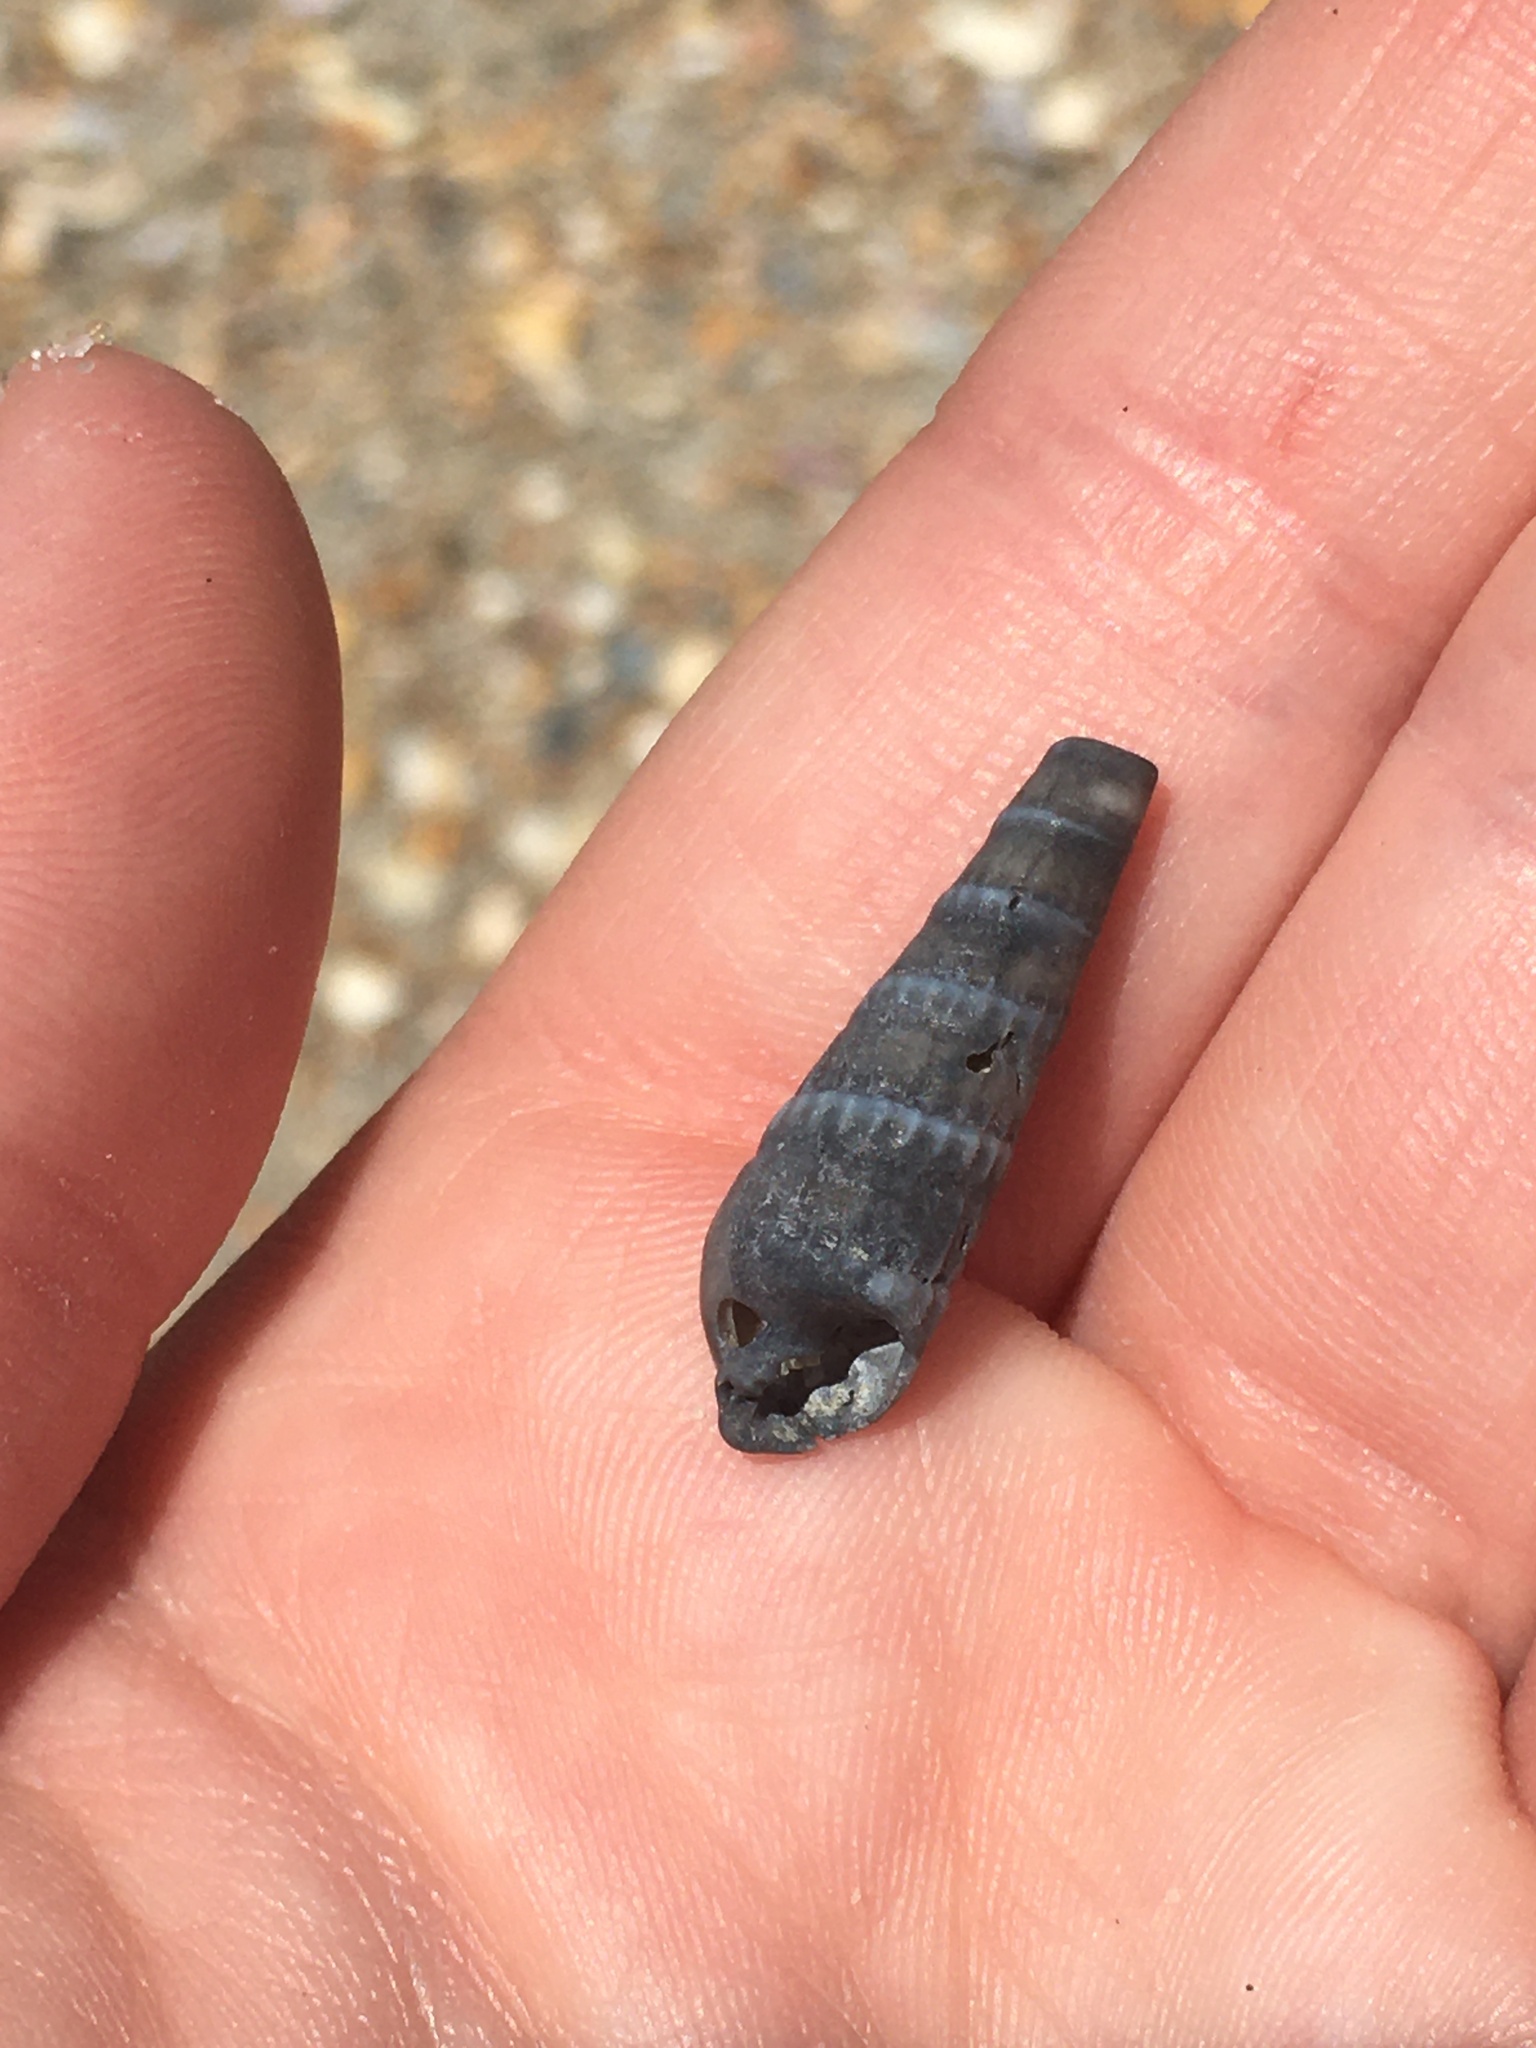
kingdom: Animalia
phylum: Mollusca
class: Gastropoda
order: Neogastropoda
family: Terebridae
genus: Neoterebra
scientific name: Neoterebra dislocata
